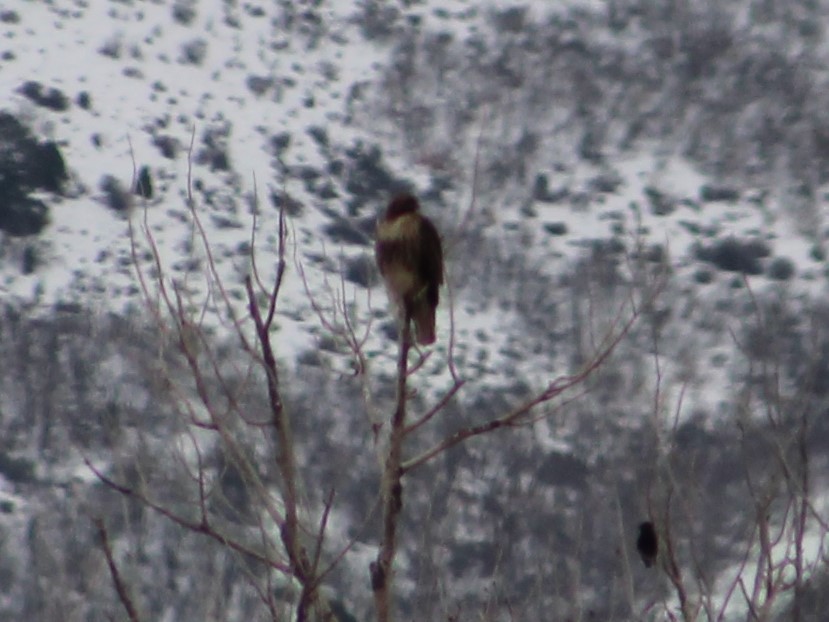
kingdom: Animalia
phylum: Chordata
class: Aves
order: Accipitriformes
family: Accipitridae
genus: Buteo
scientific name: Buteo jamaicensis
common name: Red-tailed hawk
